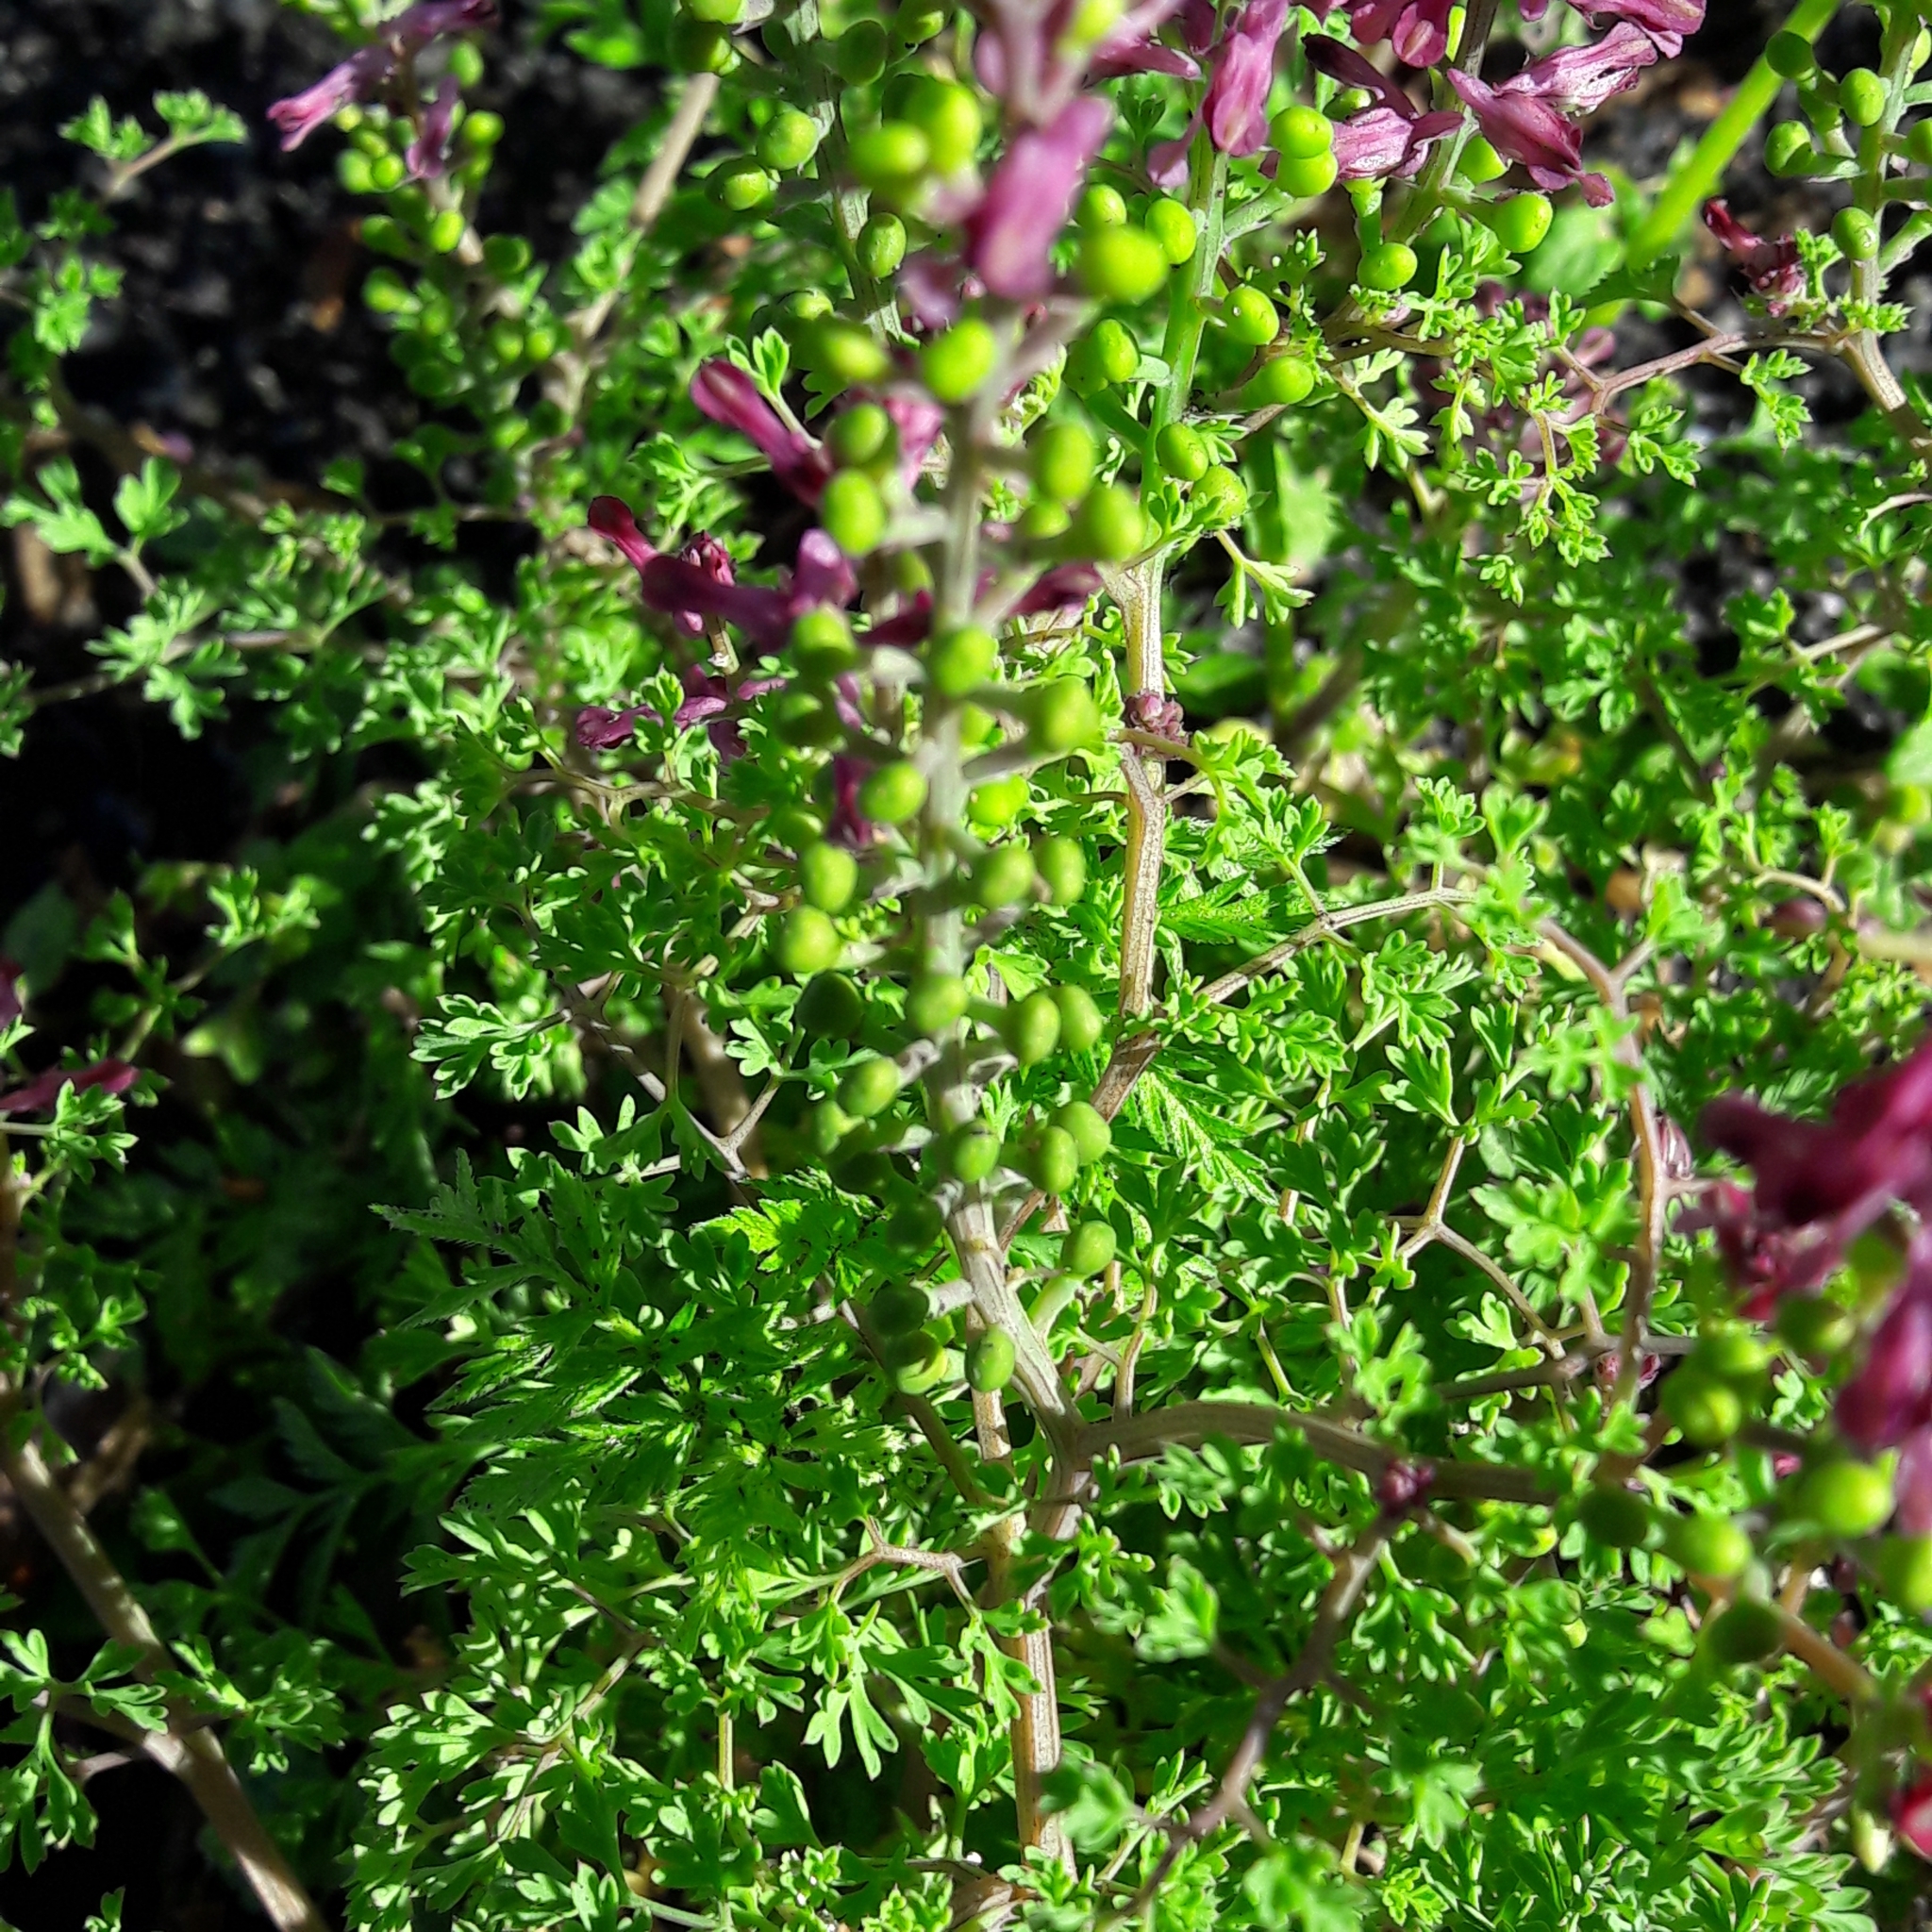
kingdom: Plantae
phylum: Tracheophyta
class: Magnoliopsida
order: Ranunculales
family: Papaveraceae
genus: Fumaria
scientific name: Fumaria officinalis
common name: Common fumitory
